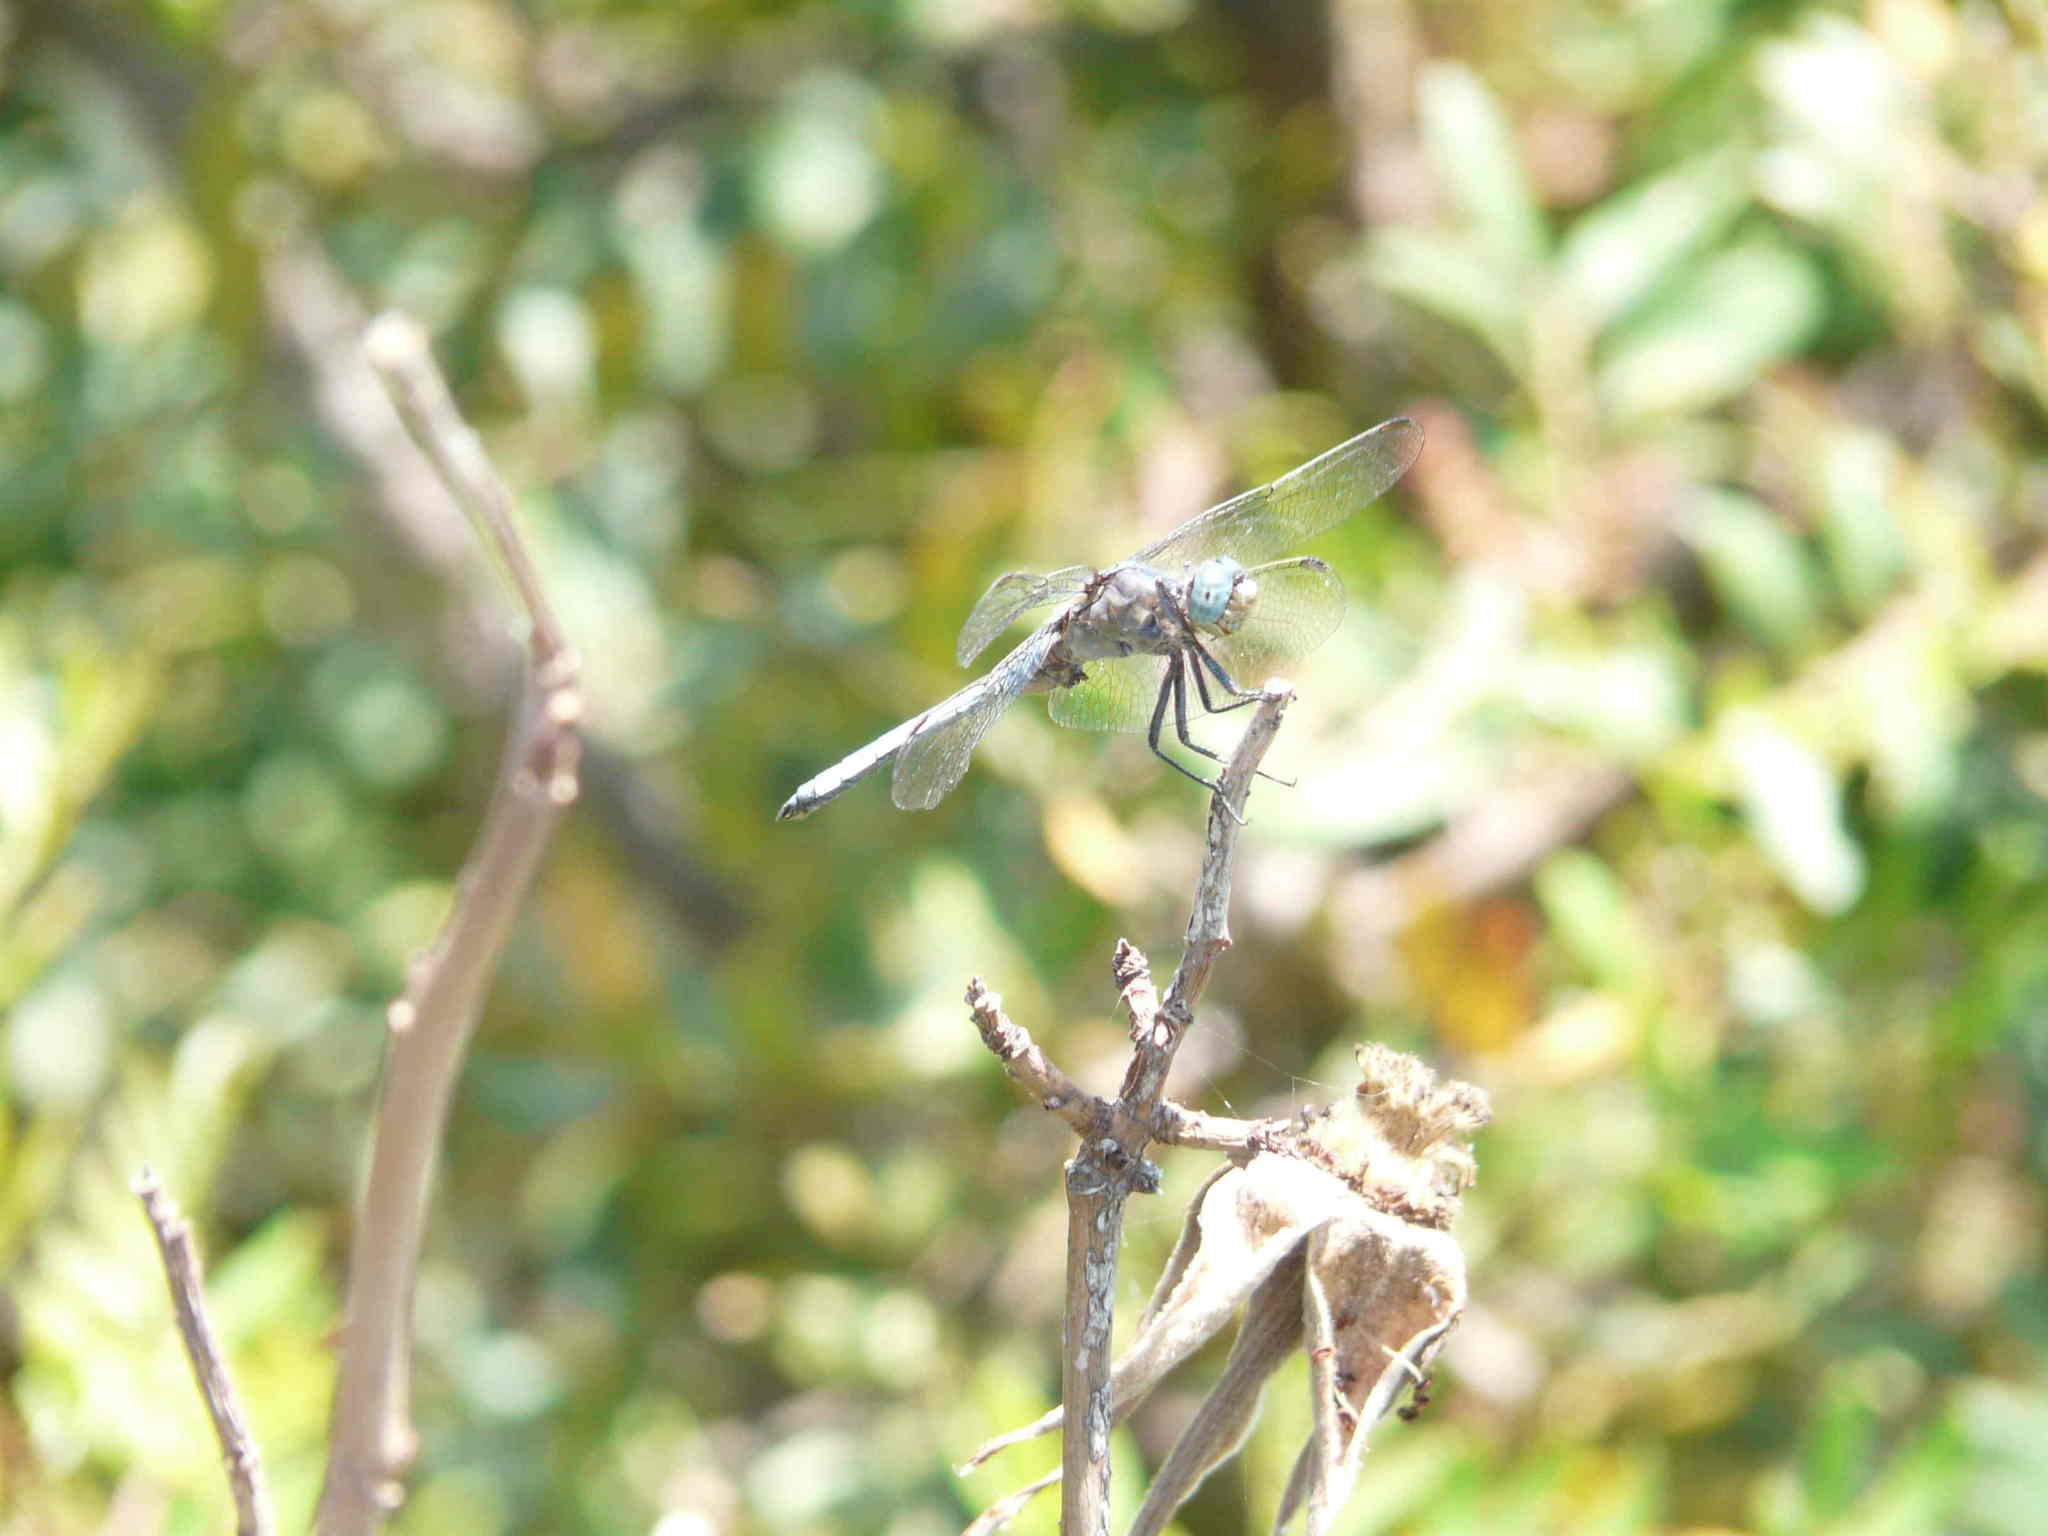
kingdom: Animalia
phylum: Arthropoda
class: Insecta
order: Odonata
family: Libellulidae
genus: Orthetrum
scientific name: Orthetrum coerulescens
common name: Keeled skimmer
